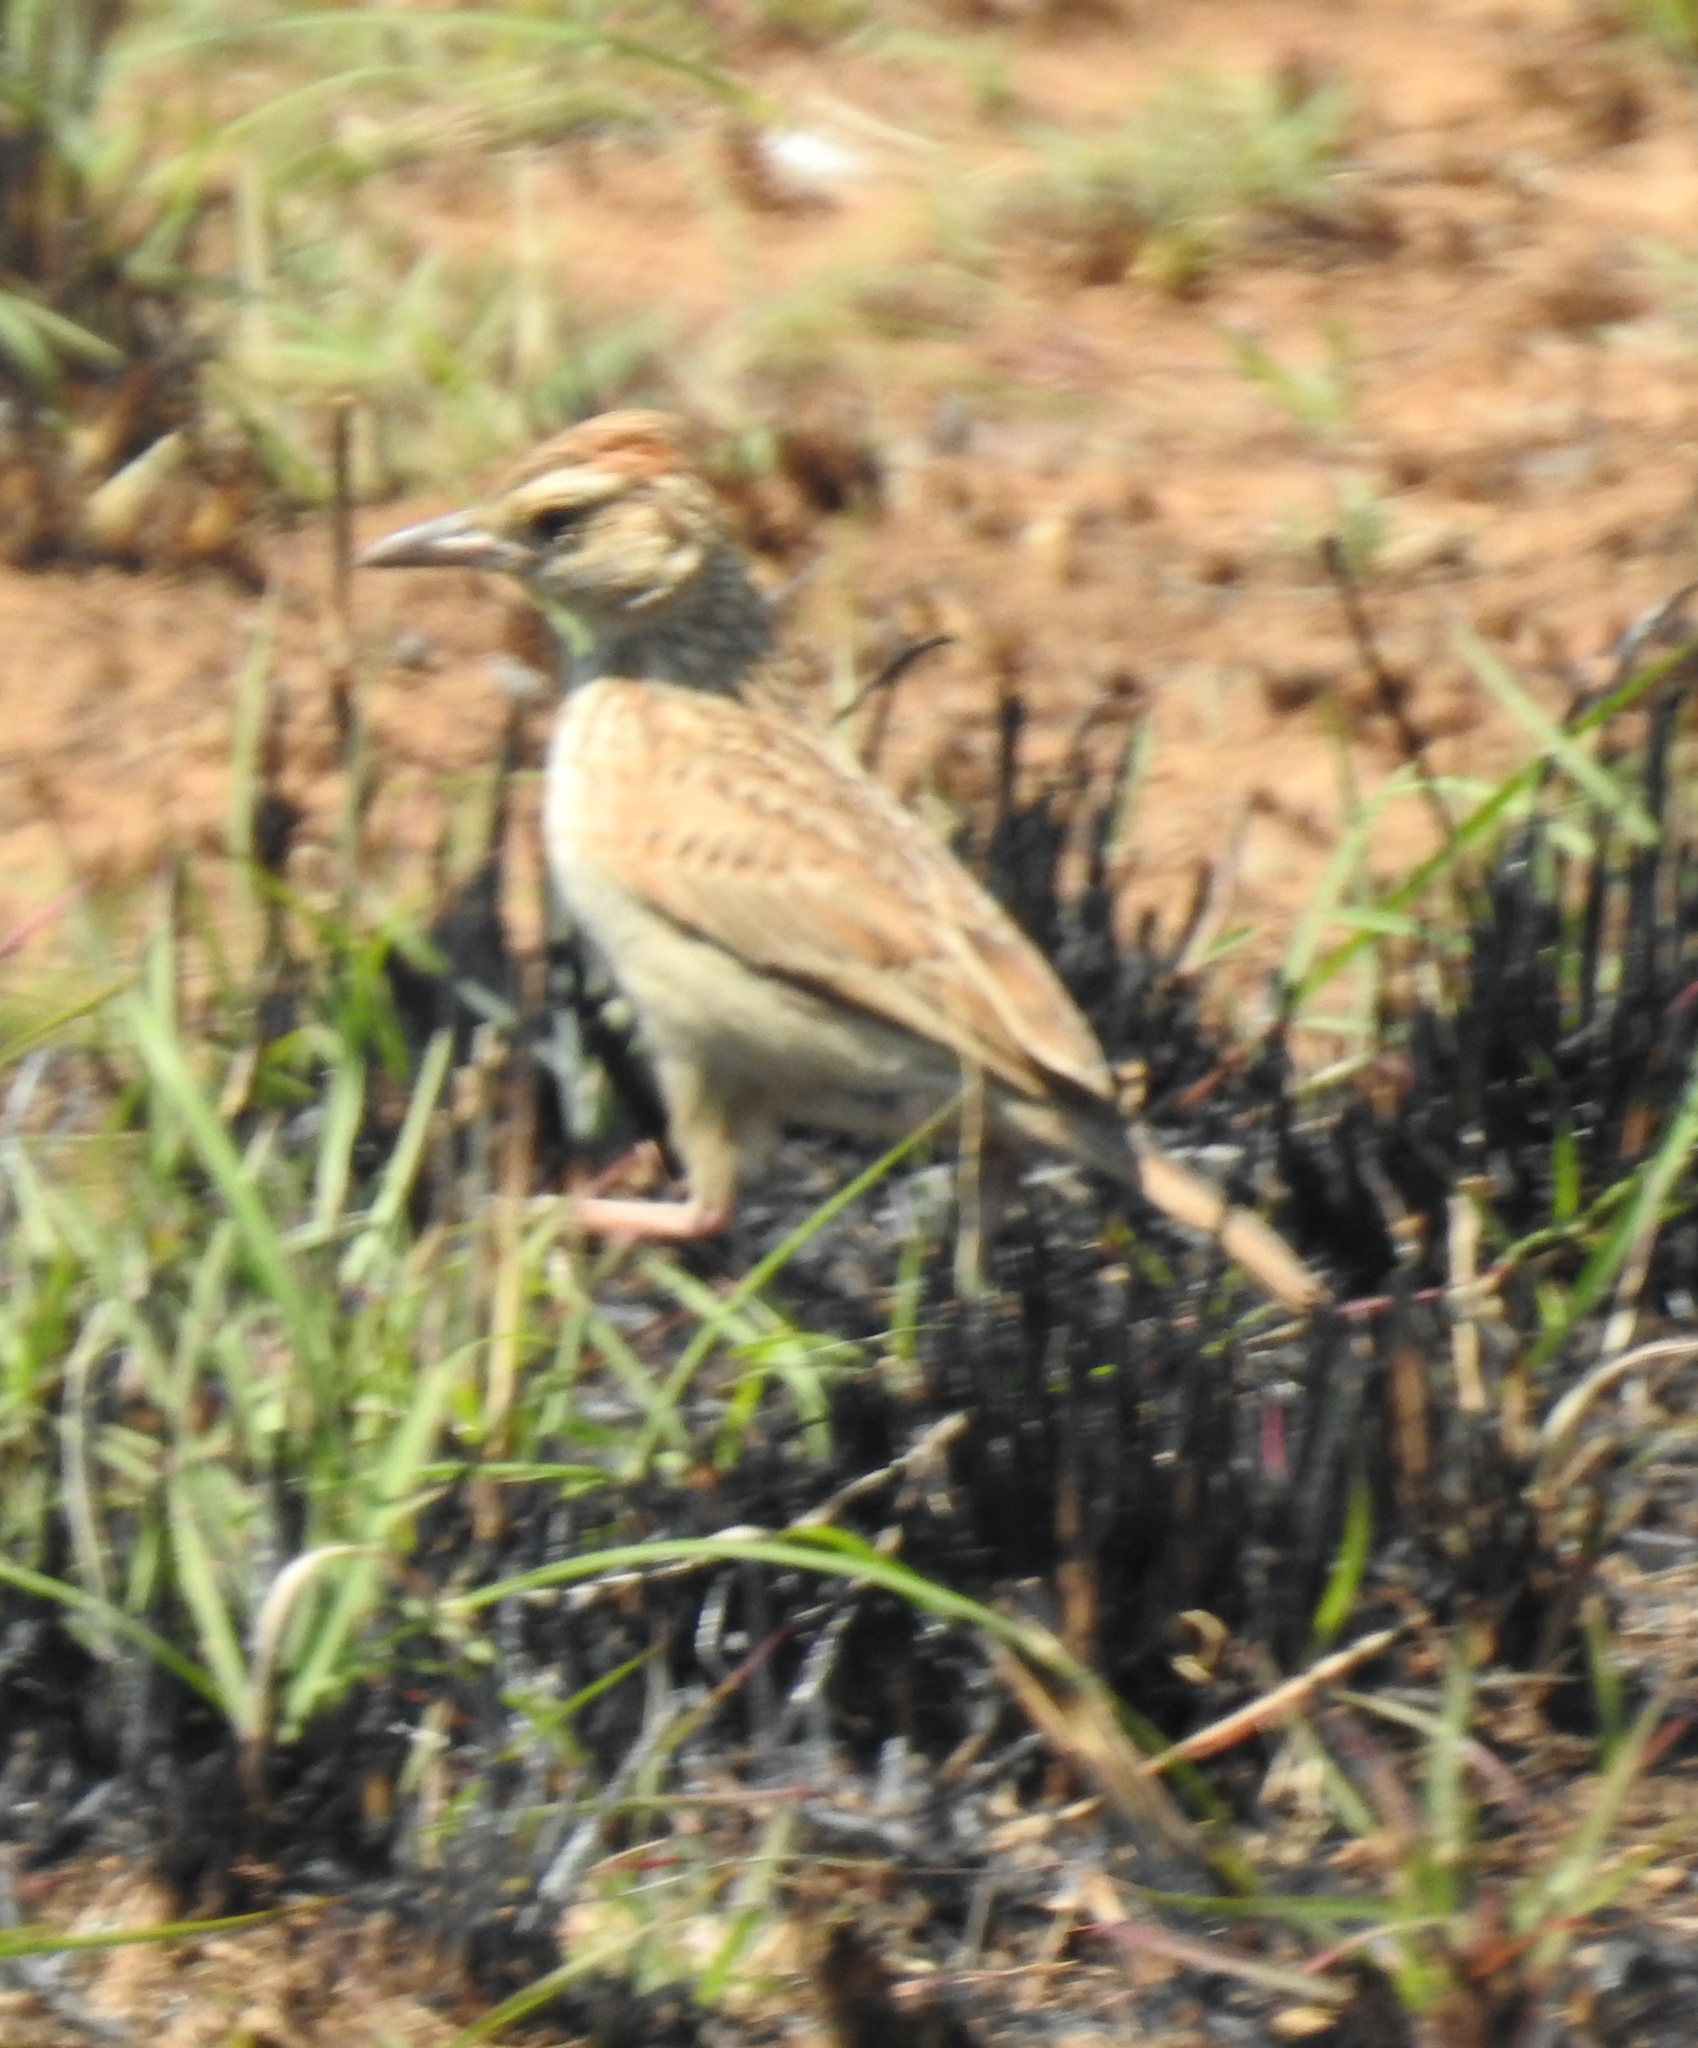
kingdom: Animalia
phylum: Chordata
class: Aves
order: Passeriformes
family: Alaudidae
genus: Mirafra
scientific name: Mirafra africana
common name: Rufous-naped lark
